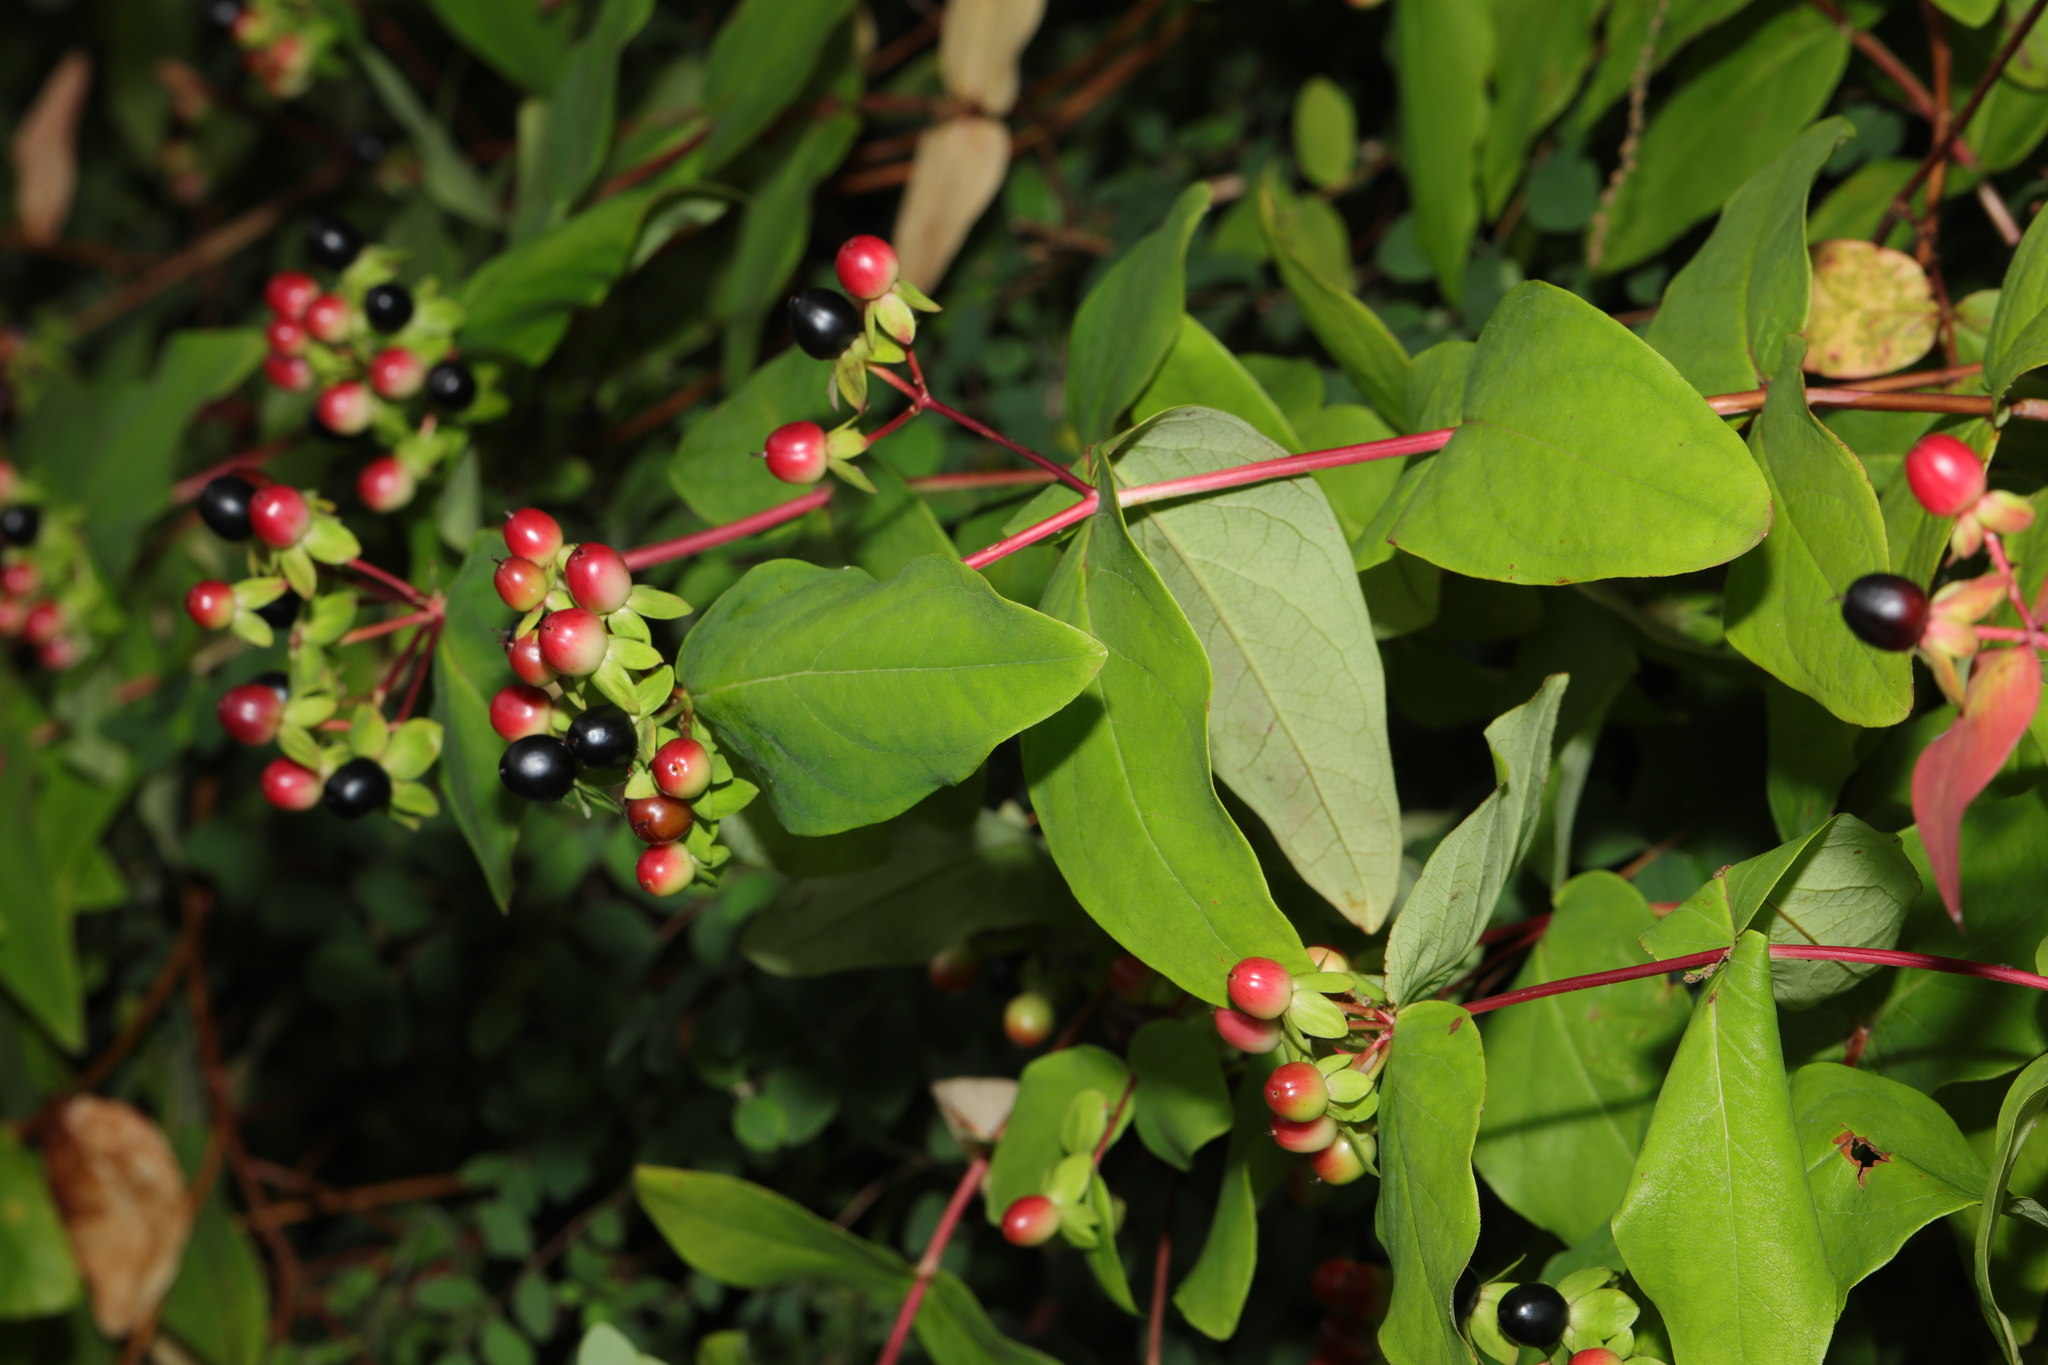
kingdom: Plantae
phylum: Tracheophyta
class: Magnoliopsida
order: Malpighiales
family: Hypericaceae
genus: Hypericum
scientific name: Hypericum androsaemum
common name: Sweet-amber
